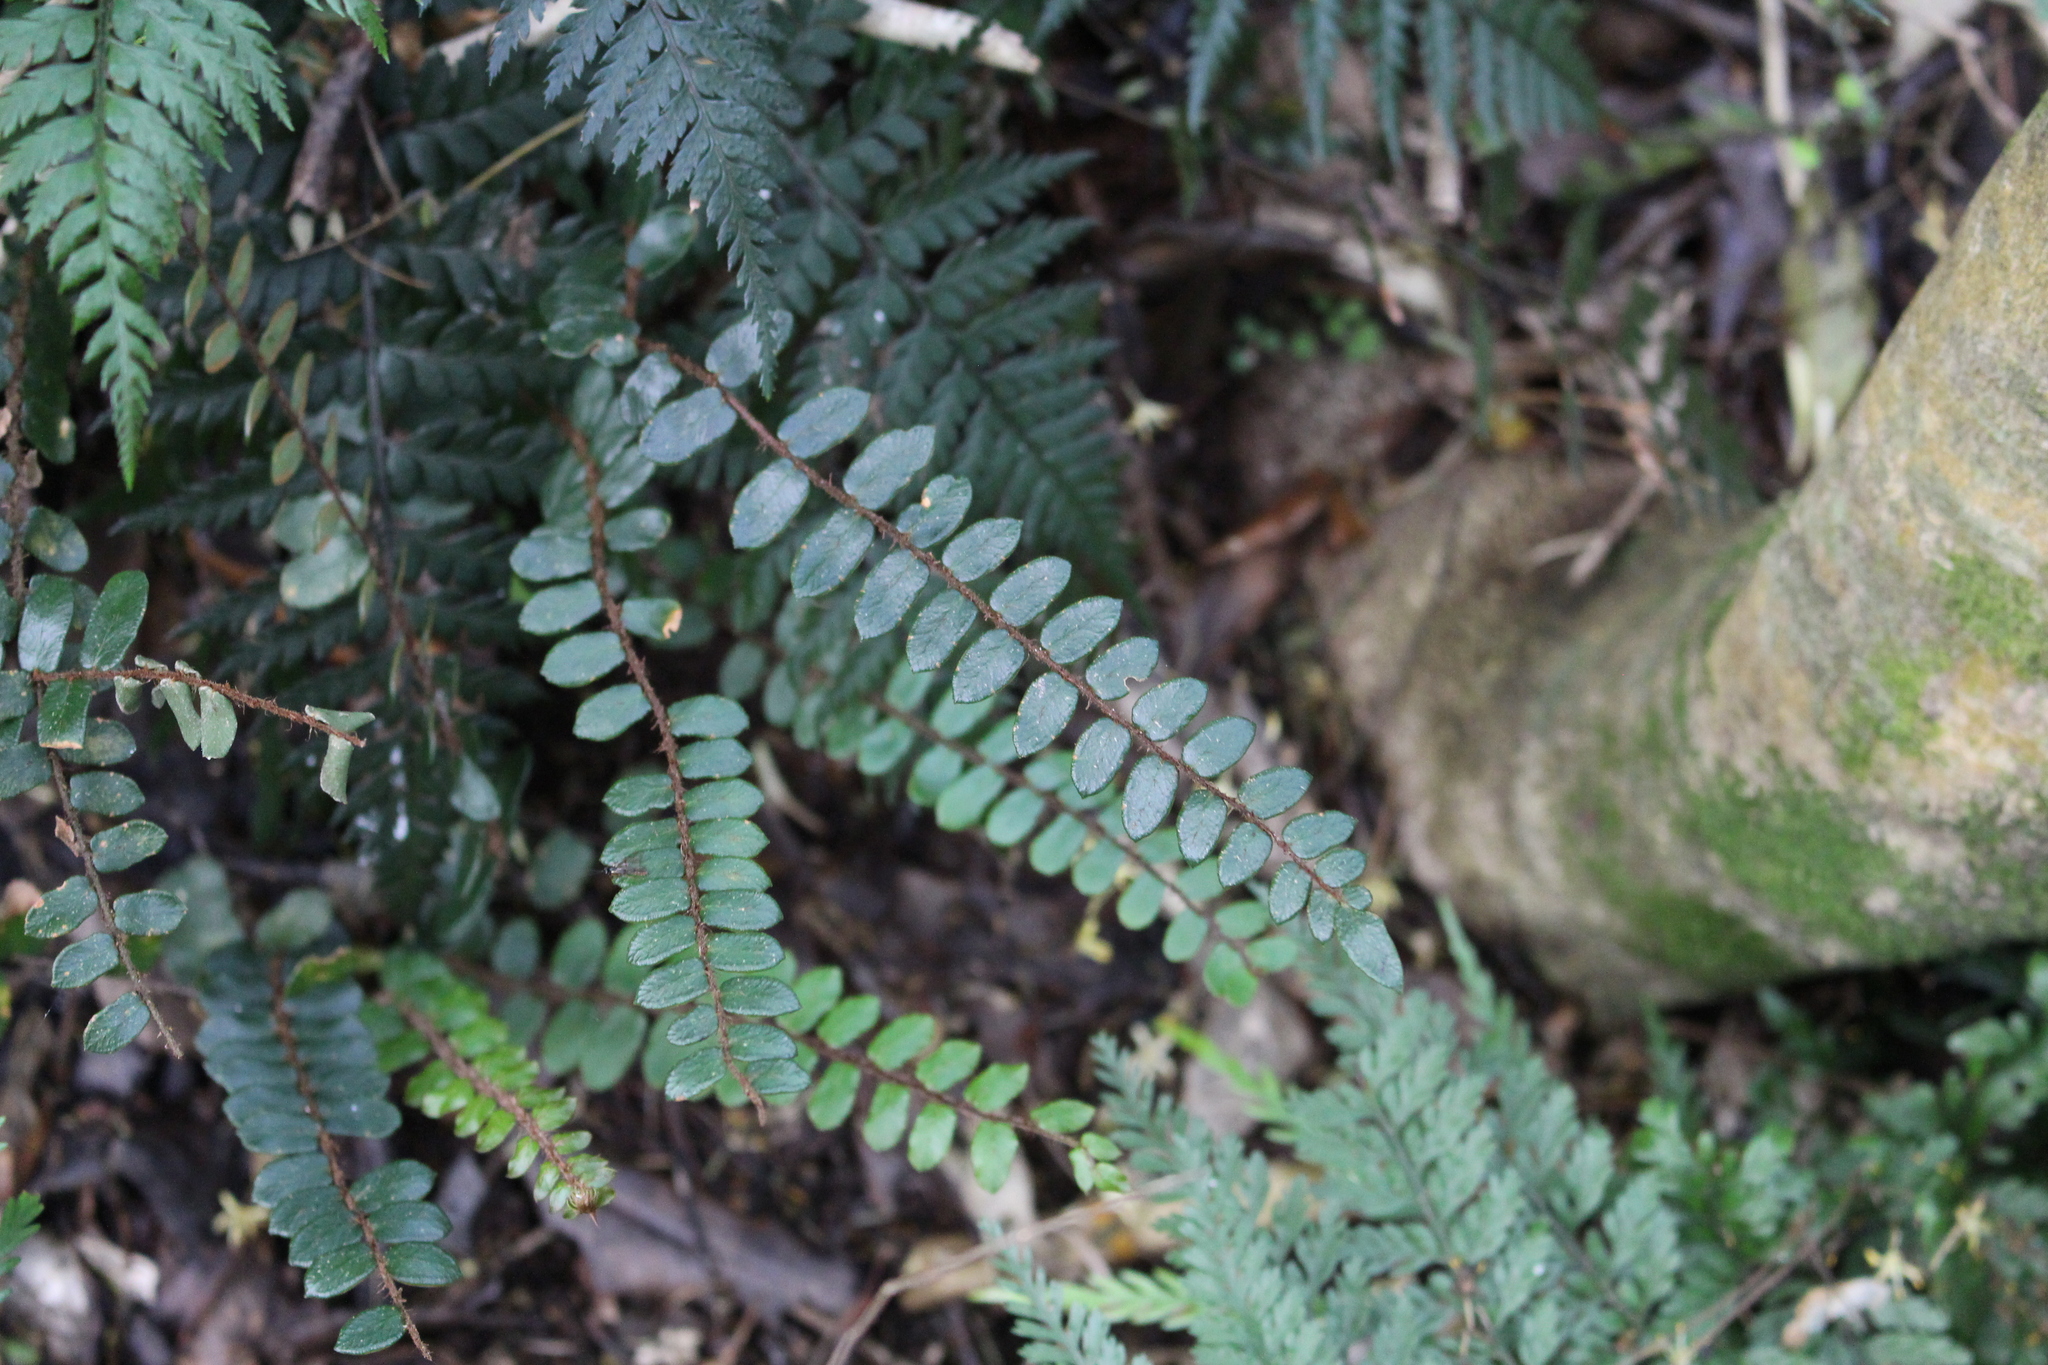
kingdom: Plantae
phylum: Tracheophyta
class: Polypodiopsida
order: Polypodiales
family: Pteridaceae
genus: Pellaea
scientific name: Pellaea rotundifolia
